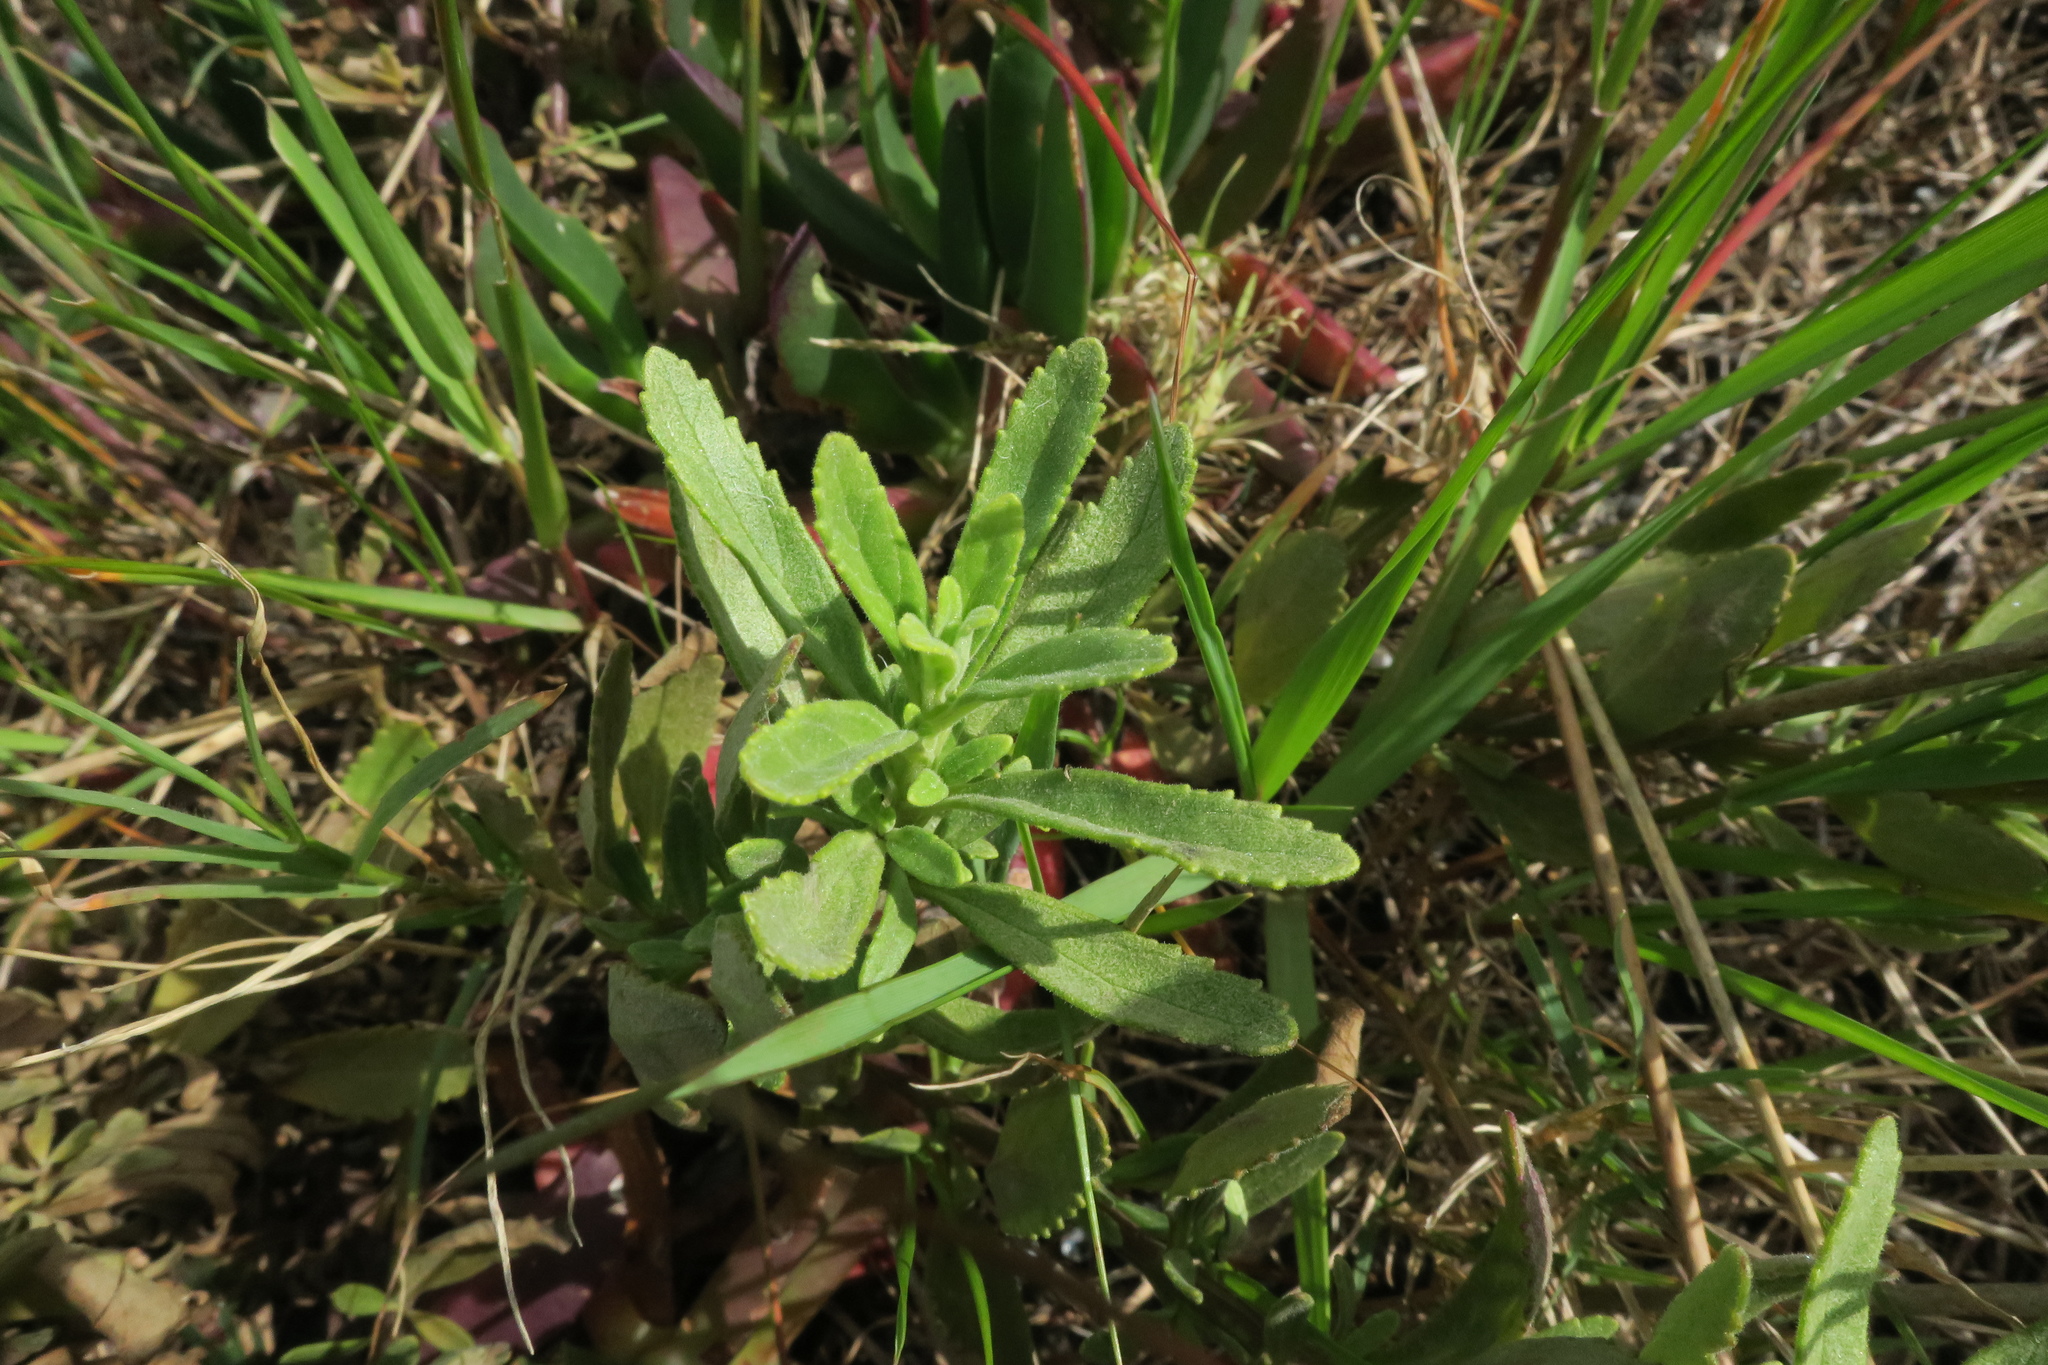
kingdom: Plantae
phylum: Tracheophyta
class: Magnoliopsida
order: Lamiales
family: Scrophulariaceae
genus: Lyperia
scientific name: Lyperia lychnidea
